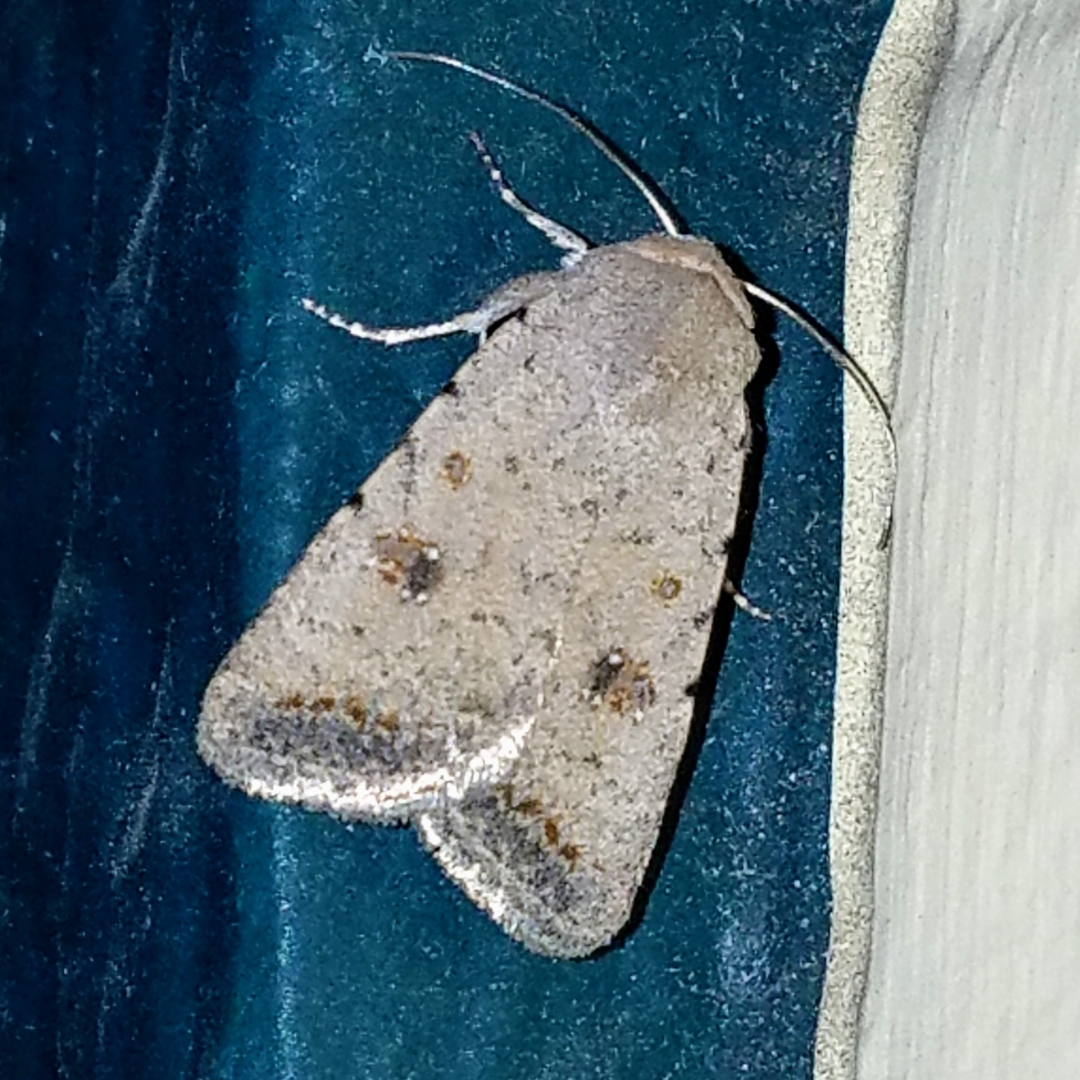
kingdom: Animalia
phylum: Arthropoda
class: Insecta
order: Lepidoptera
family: Noctuidae
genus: Caradrina
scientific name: Caradrina montana
